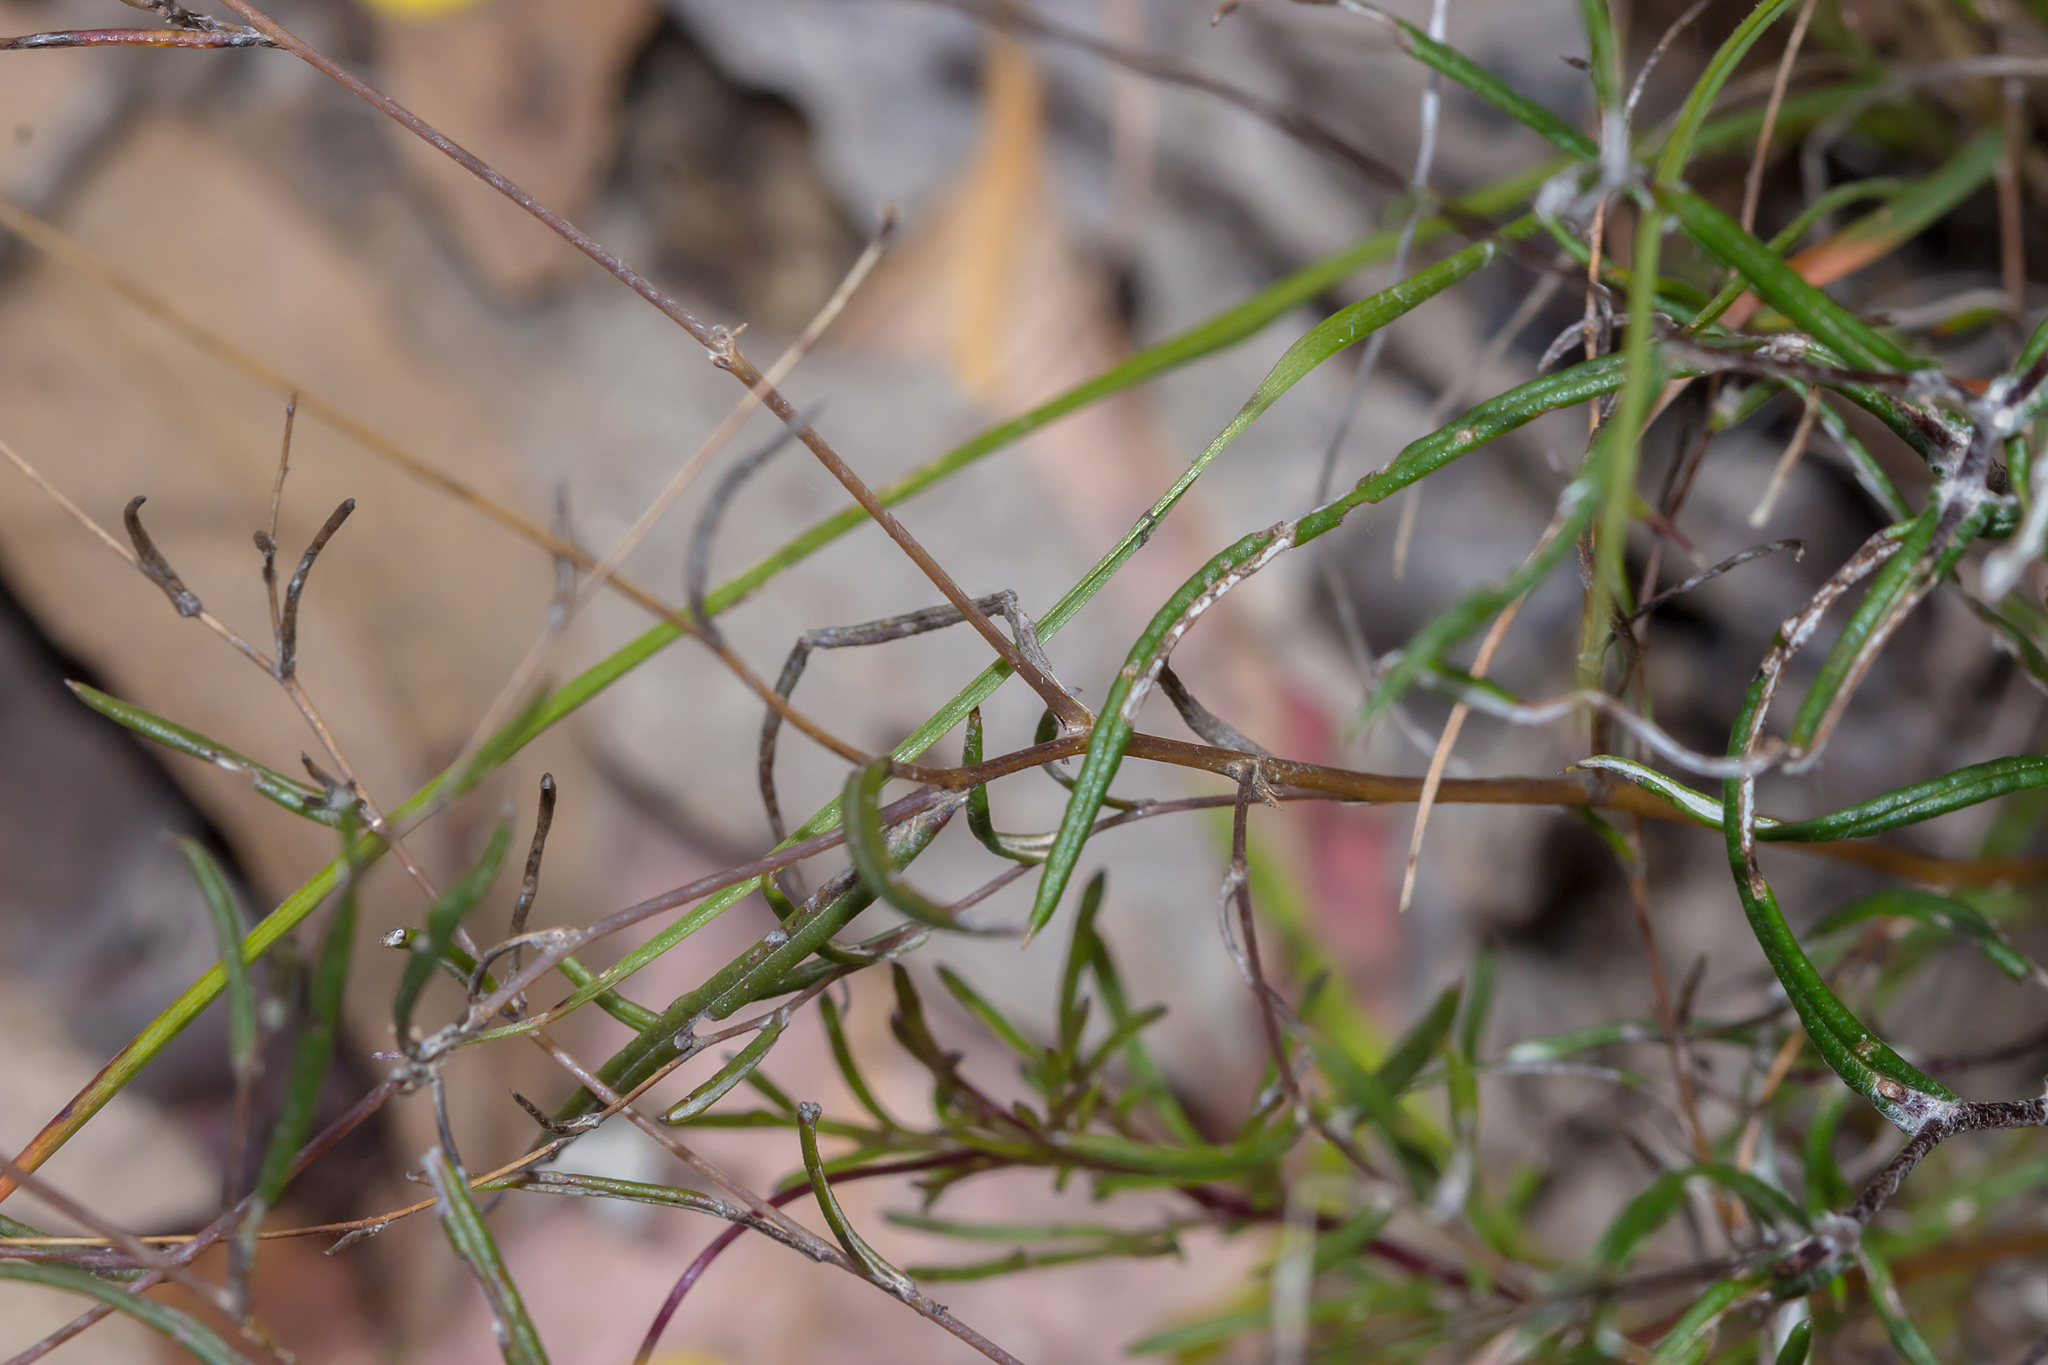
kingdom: Plantae
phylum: Tracheophyta
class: Magnoliopsida
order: Asterales
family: Asteraceae
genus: Leptorhynchos
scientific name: Leptorhynchos tenuifolius
